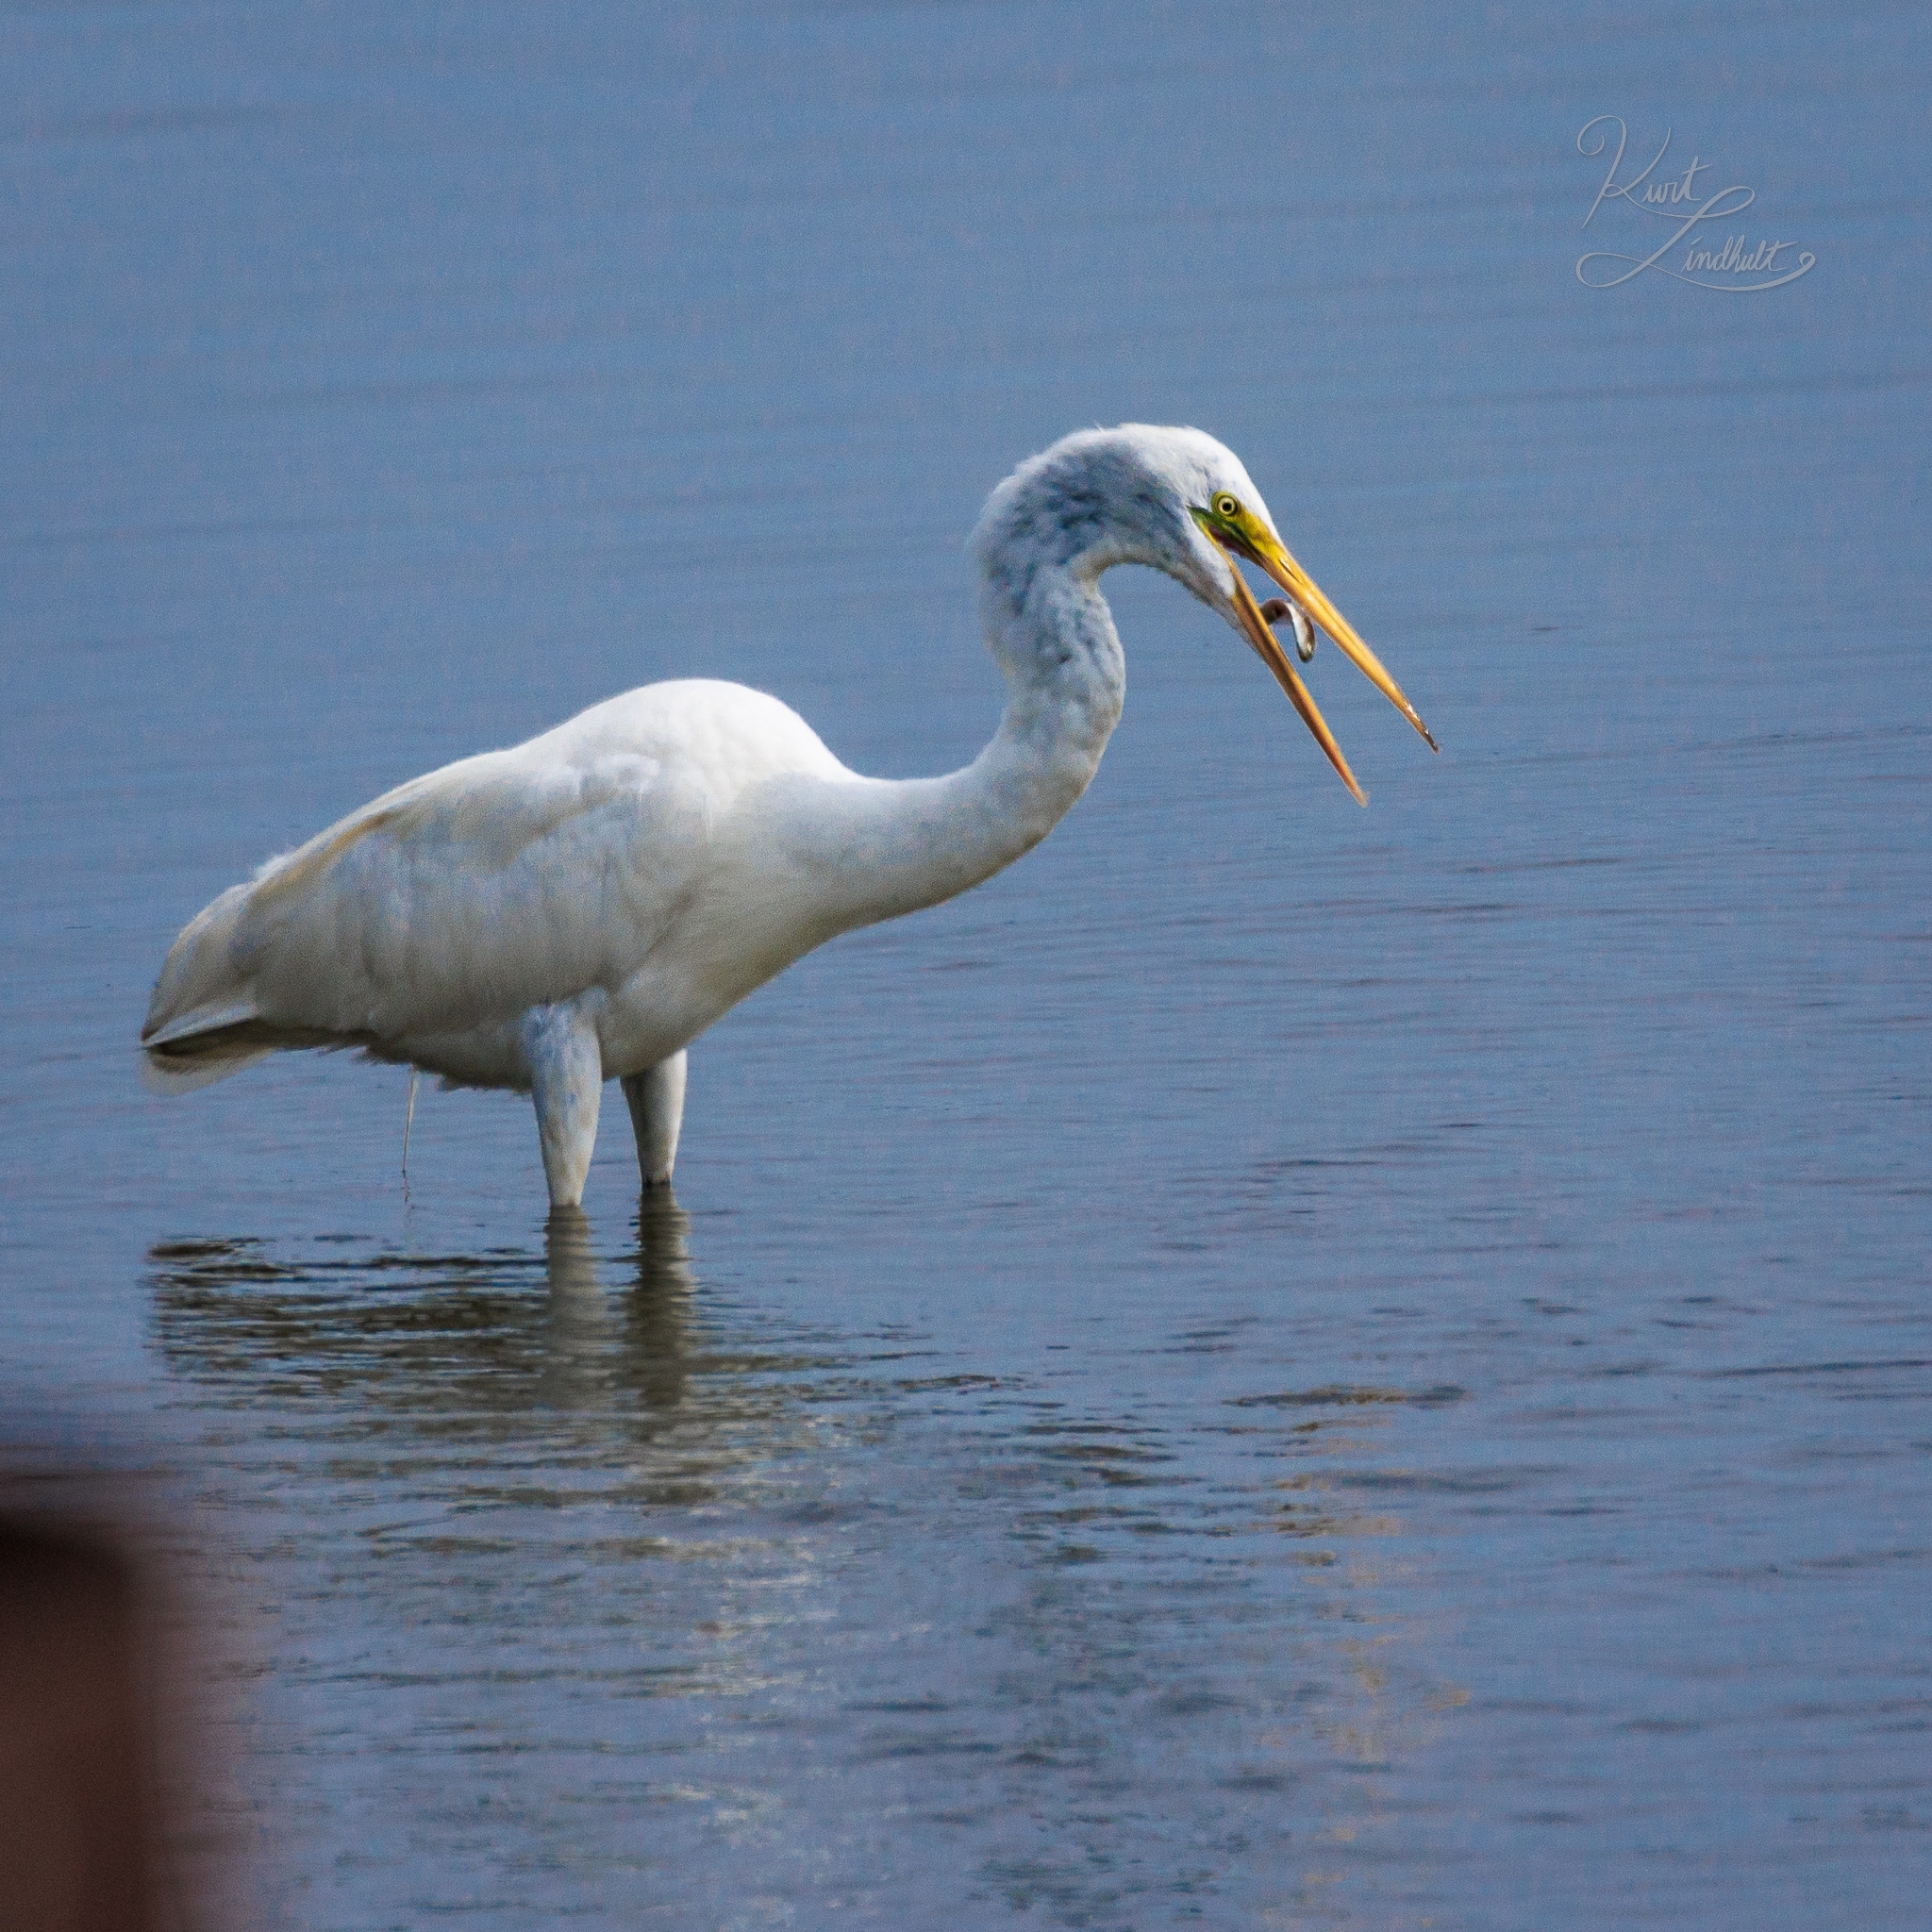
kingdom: Animalia
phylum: Chordata
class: Aves
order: Pelecaniformes
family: Ardeidae
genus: Ardea
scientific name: Ardea alba
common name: Great egret
